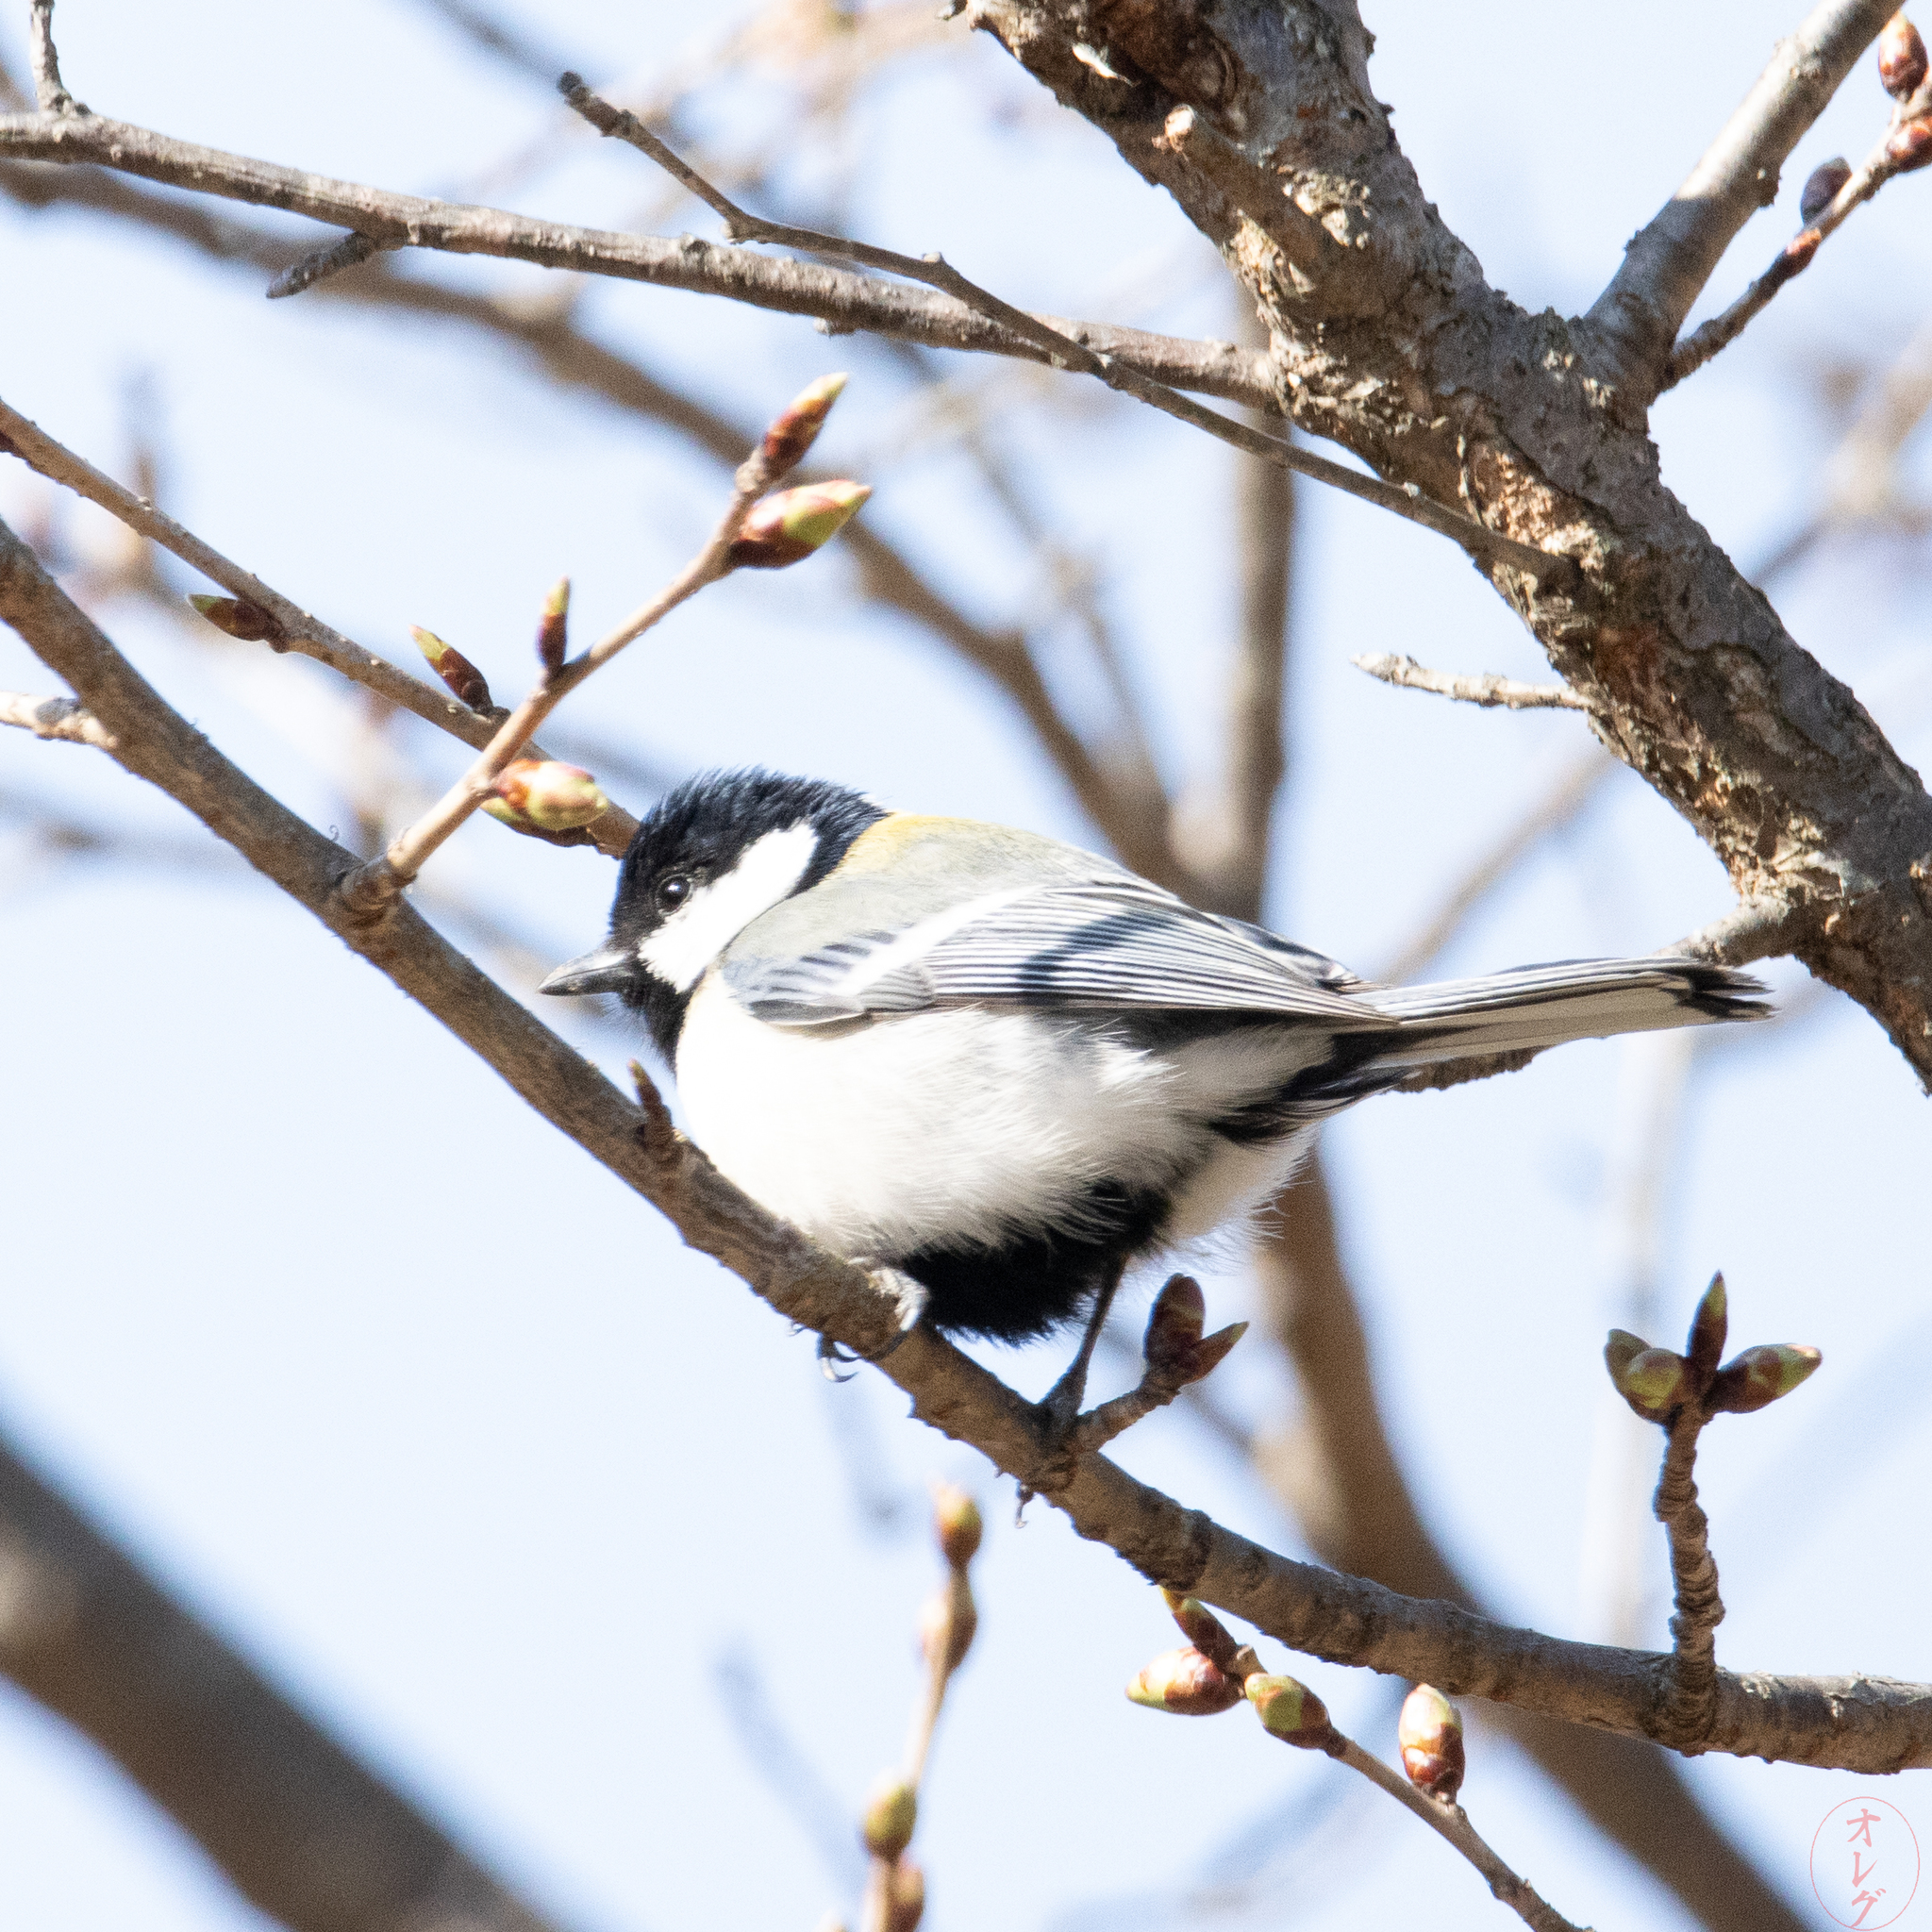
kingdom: Animalia
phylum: Chordata
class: Aves
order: Passeriformes
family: Paridae
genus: Parus
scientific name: Parus minor
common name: Japanese tit
